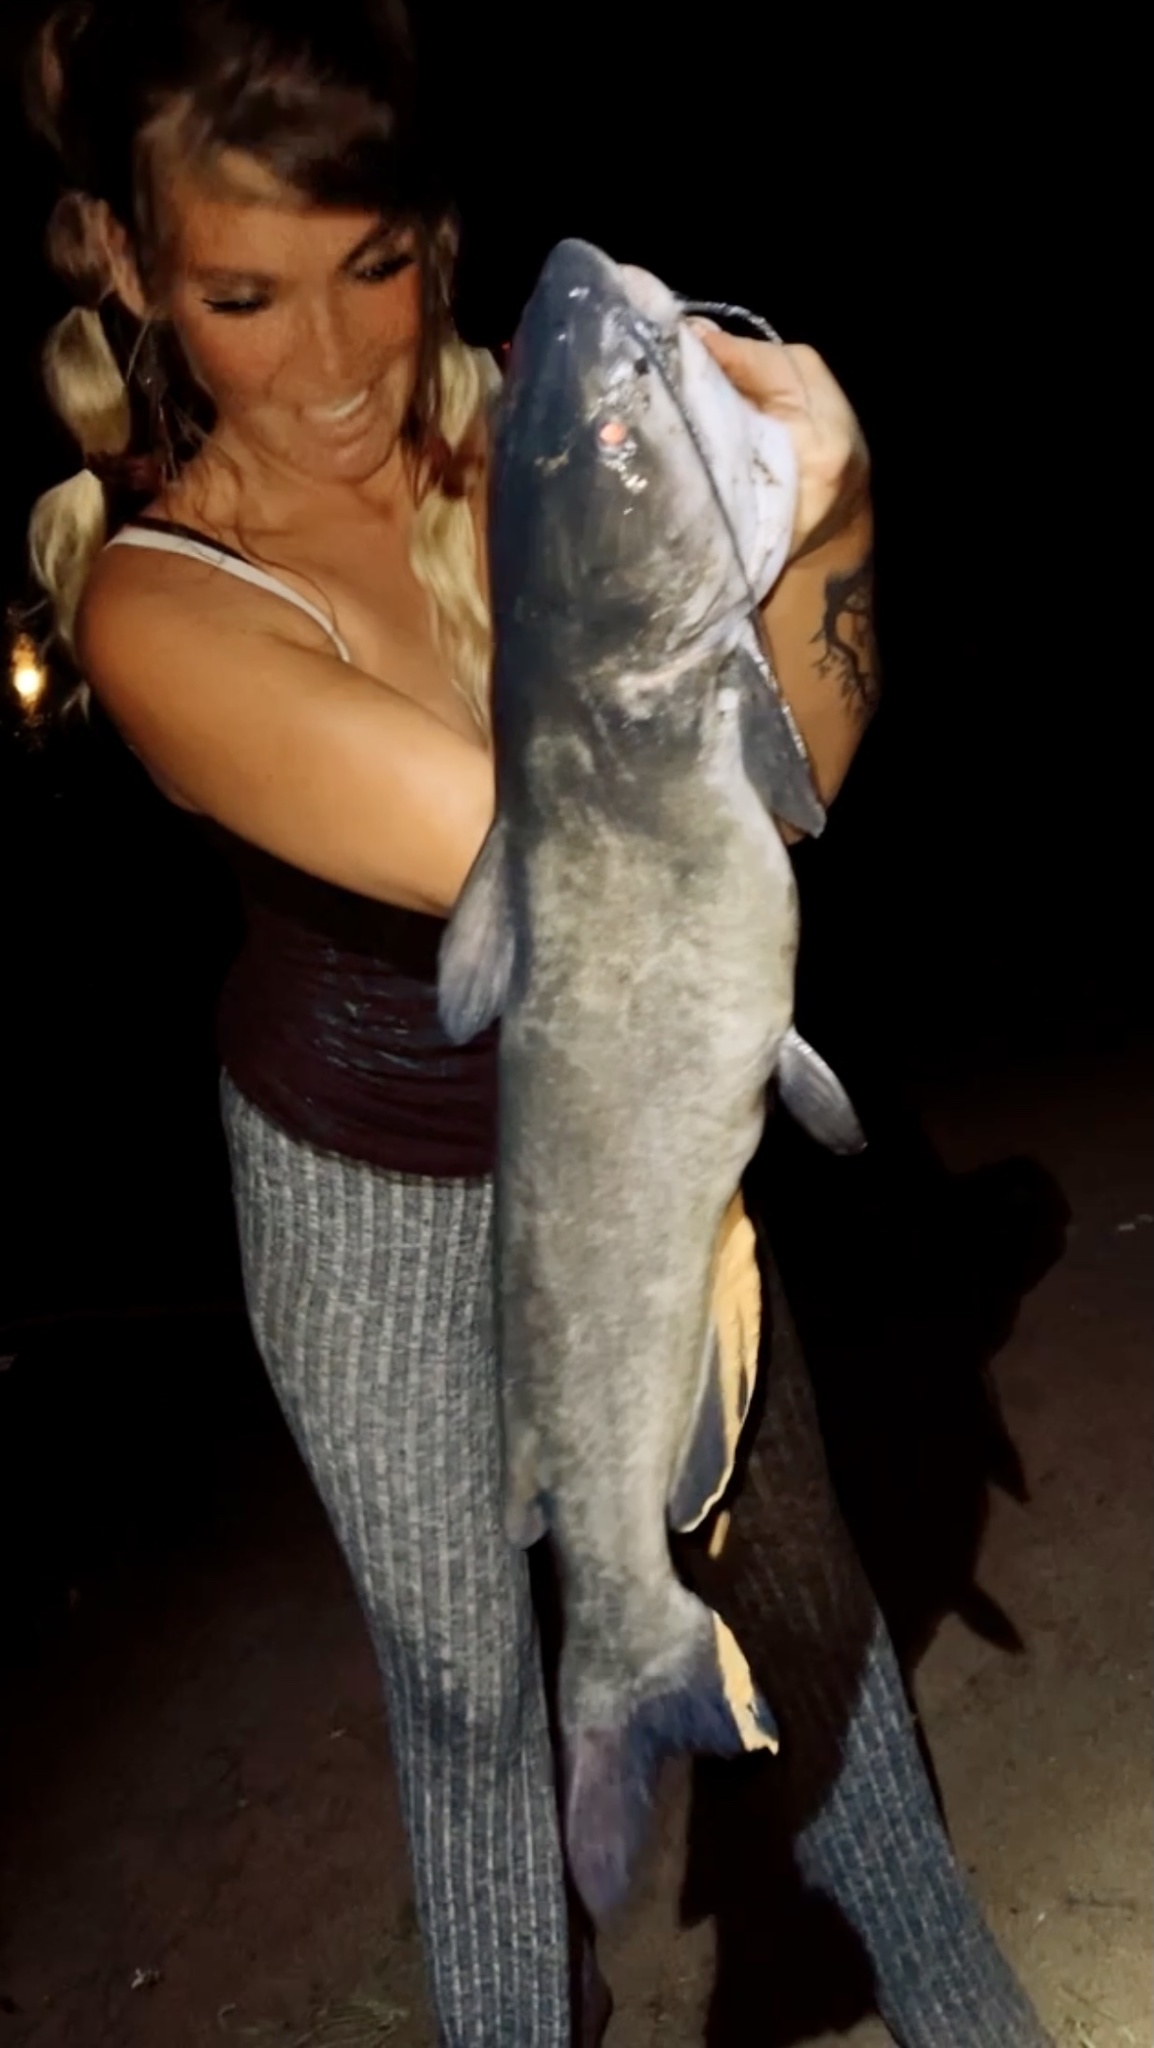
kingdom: Animalia
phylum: Chordata
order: Siluriformes
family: Ictaluridae
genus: Ictalurus
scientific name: Ictalurus punctatus
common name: Channel catfish
